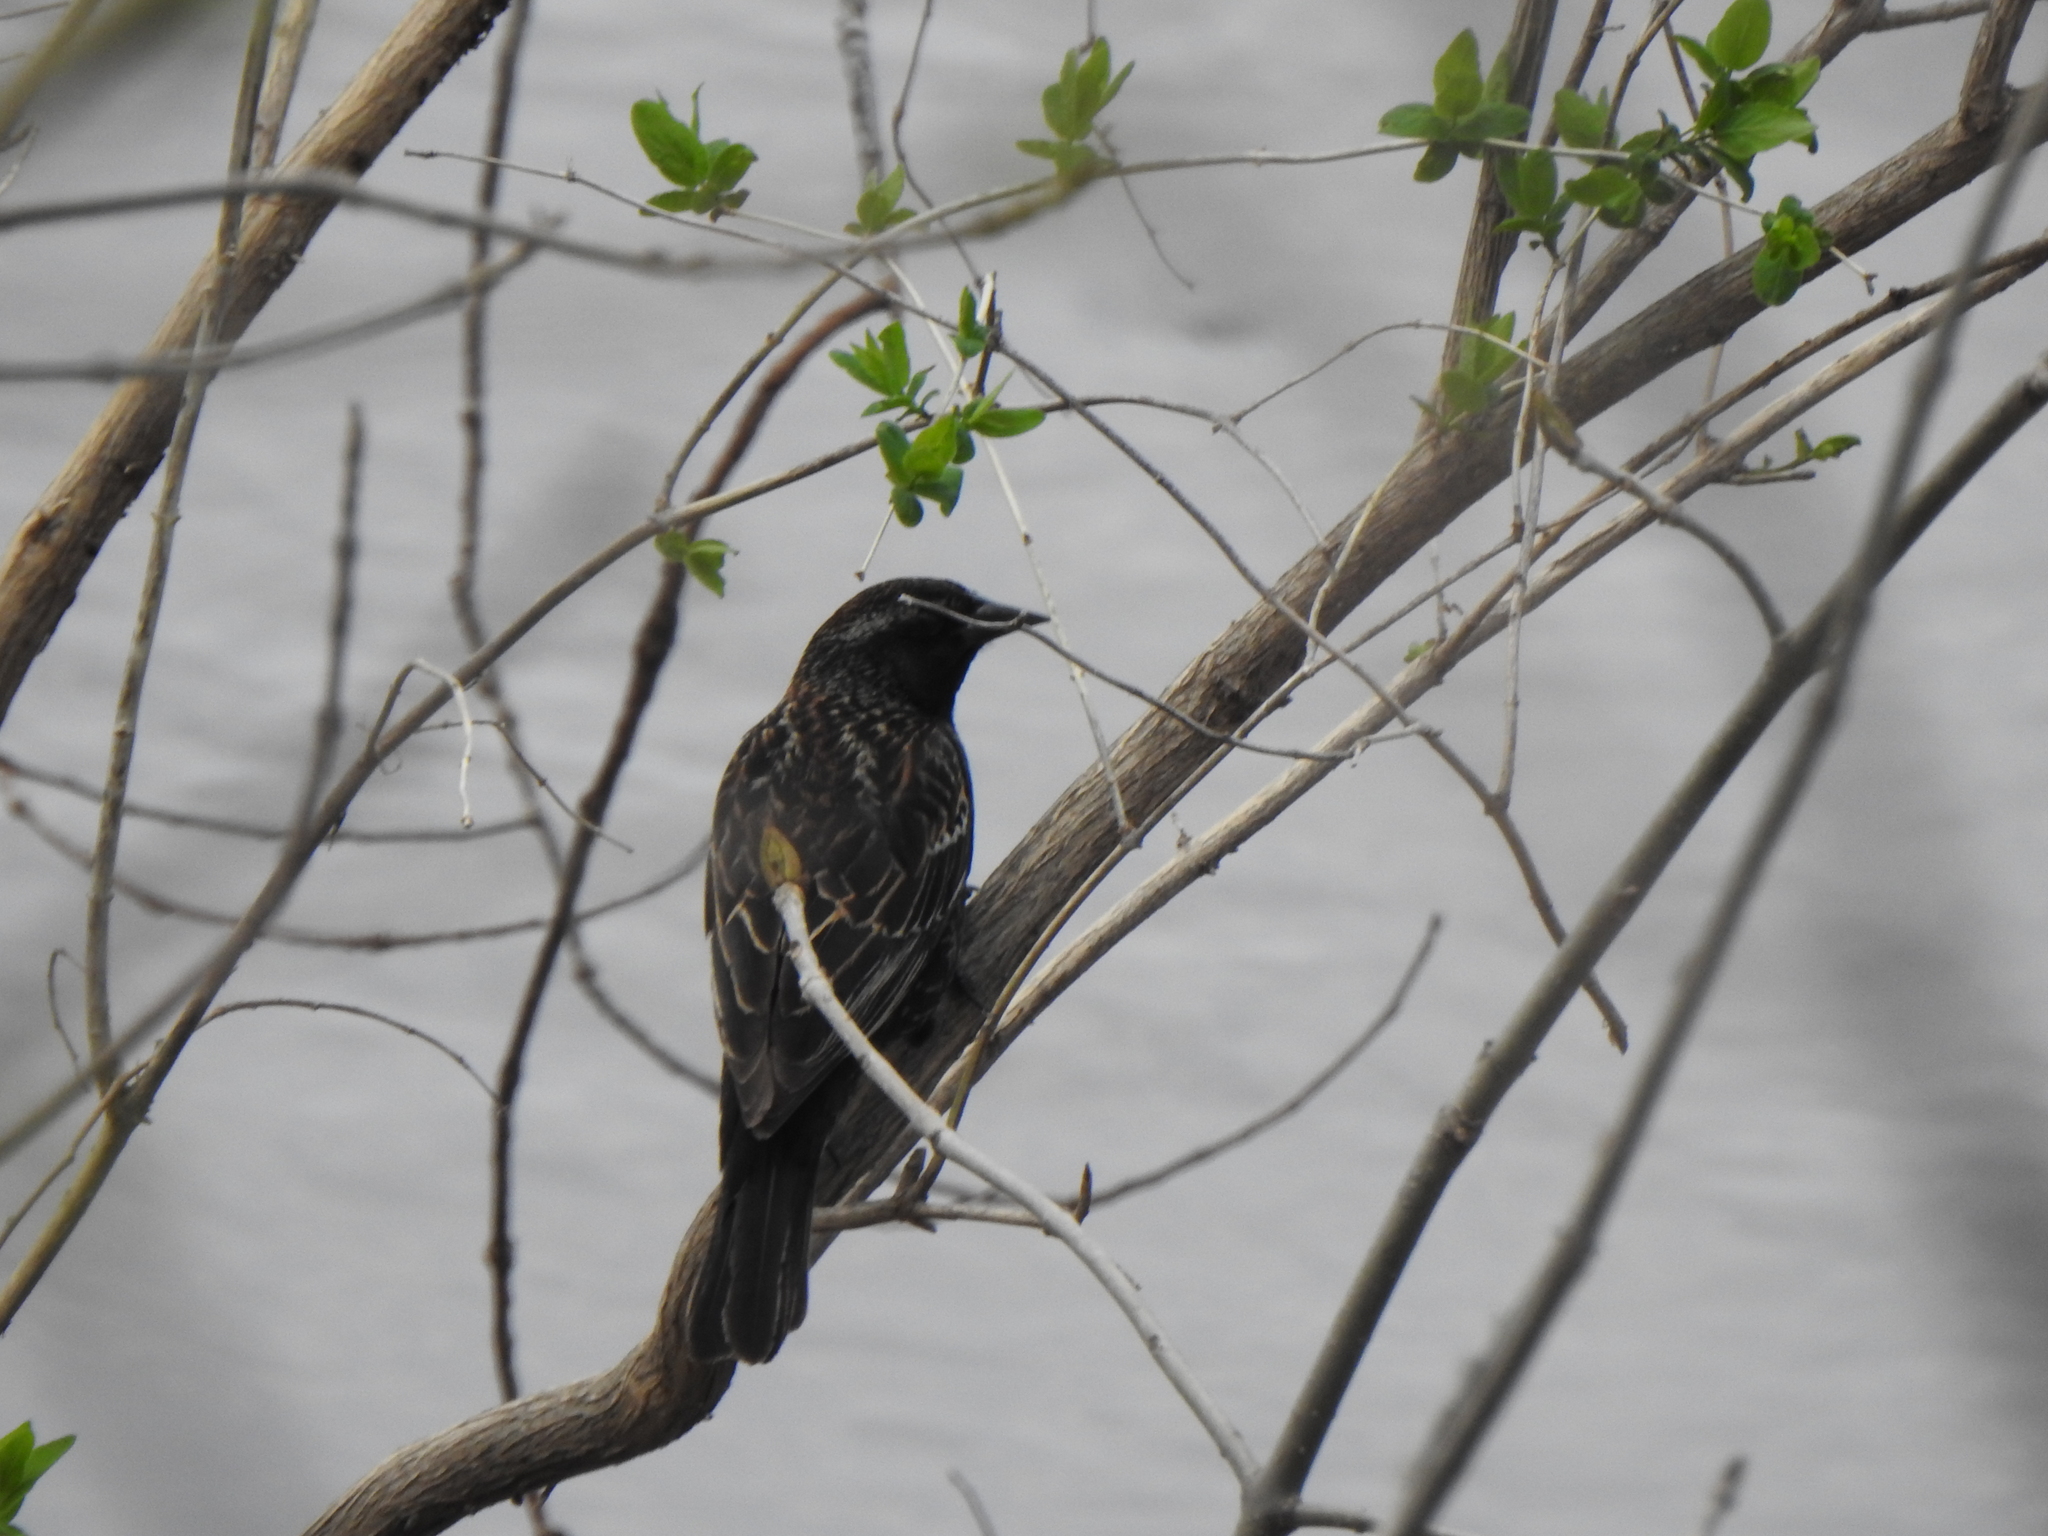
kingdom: Animalia
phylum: Chordata
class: Aves
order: Passeriformes
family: Icteridae
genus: Agelaius
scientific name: Agelaius phoeniceus
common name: Red-winged blackbird
